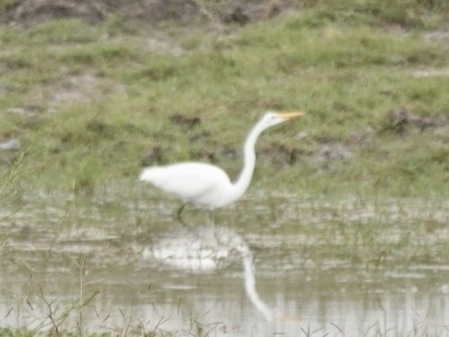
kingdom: Animalia
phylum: Chordata
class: Aves
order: Pelecaniformes
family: Ardeidae
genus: Ardea
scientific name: Ardea alba
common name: Great egret
